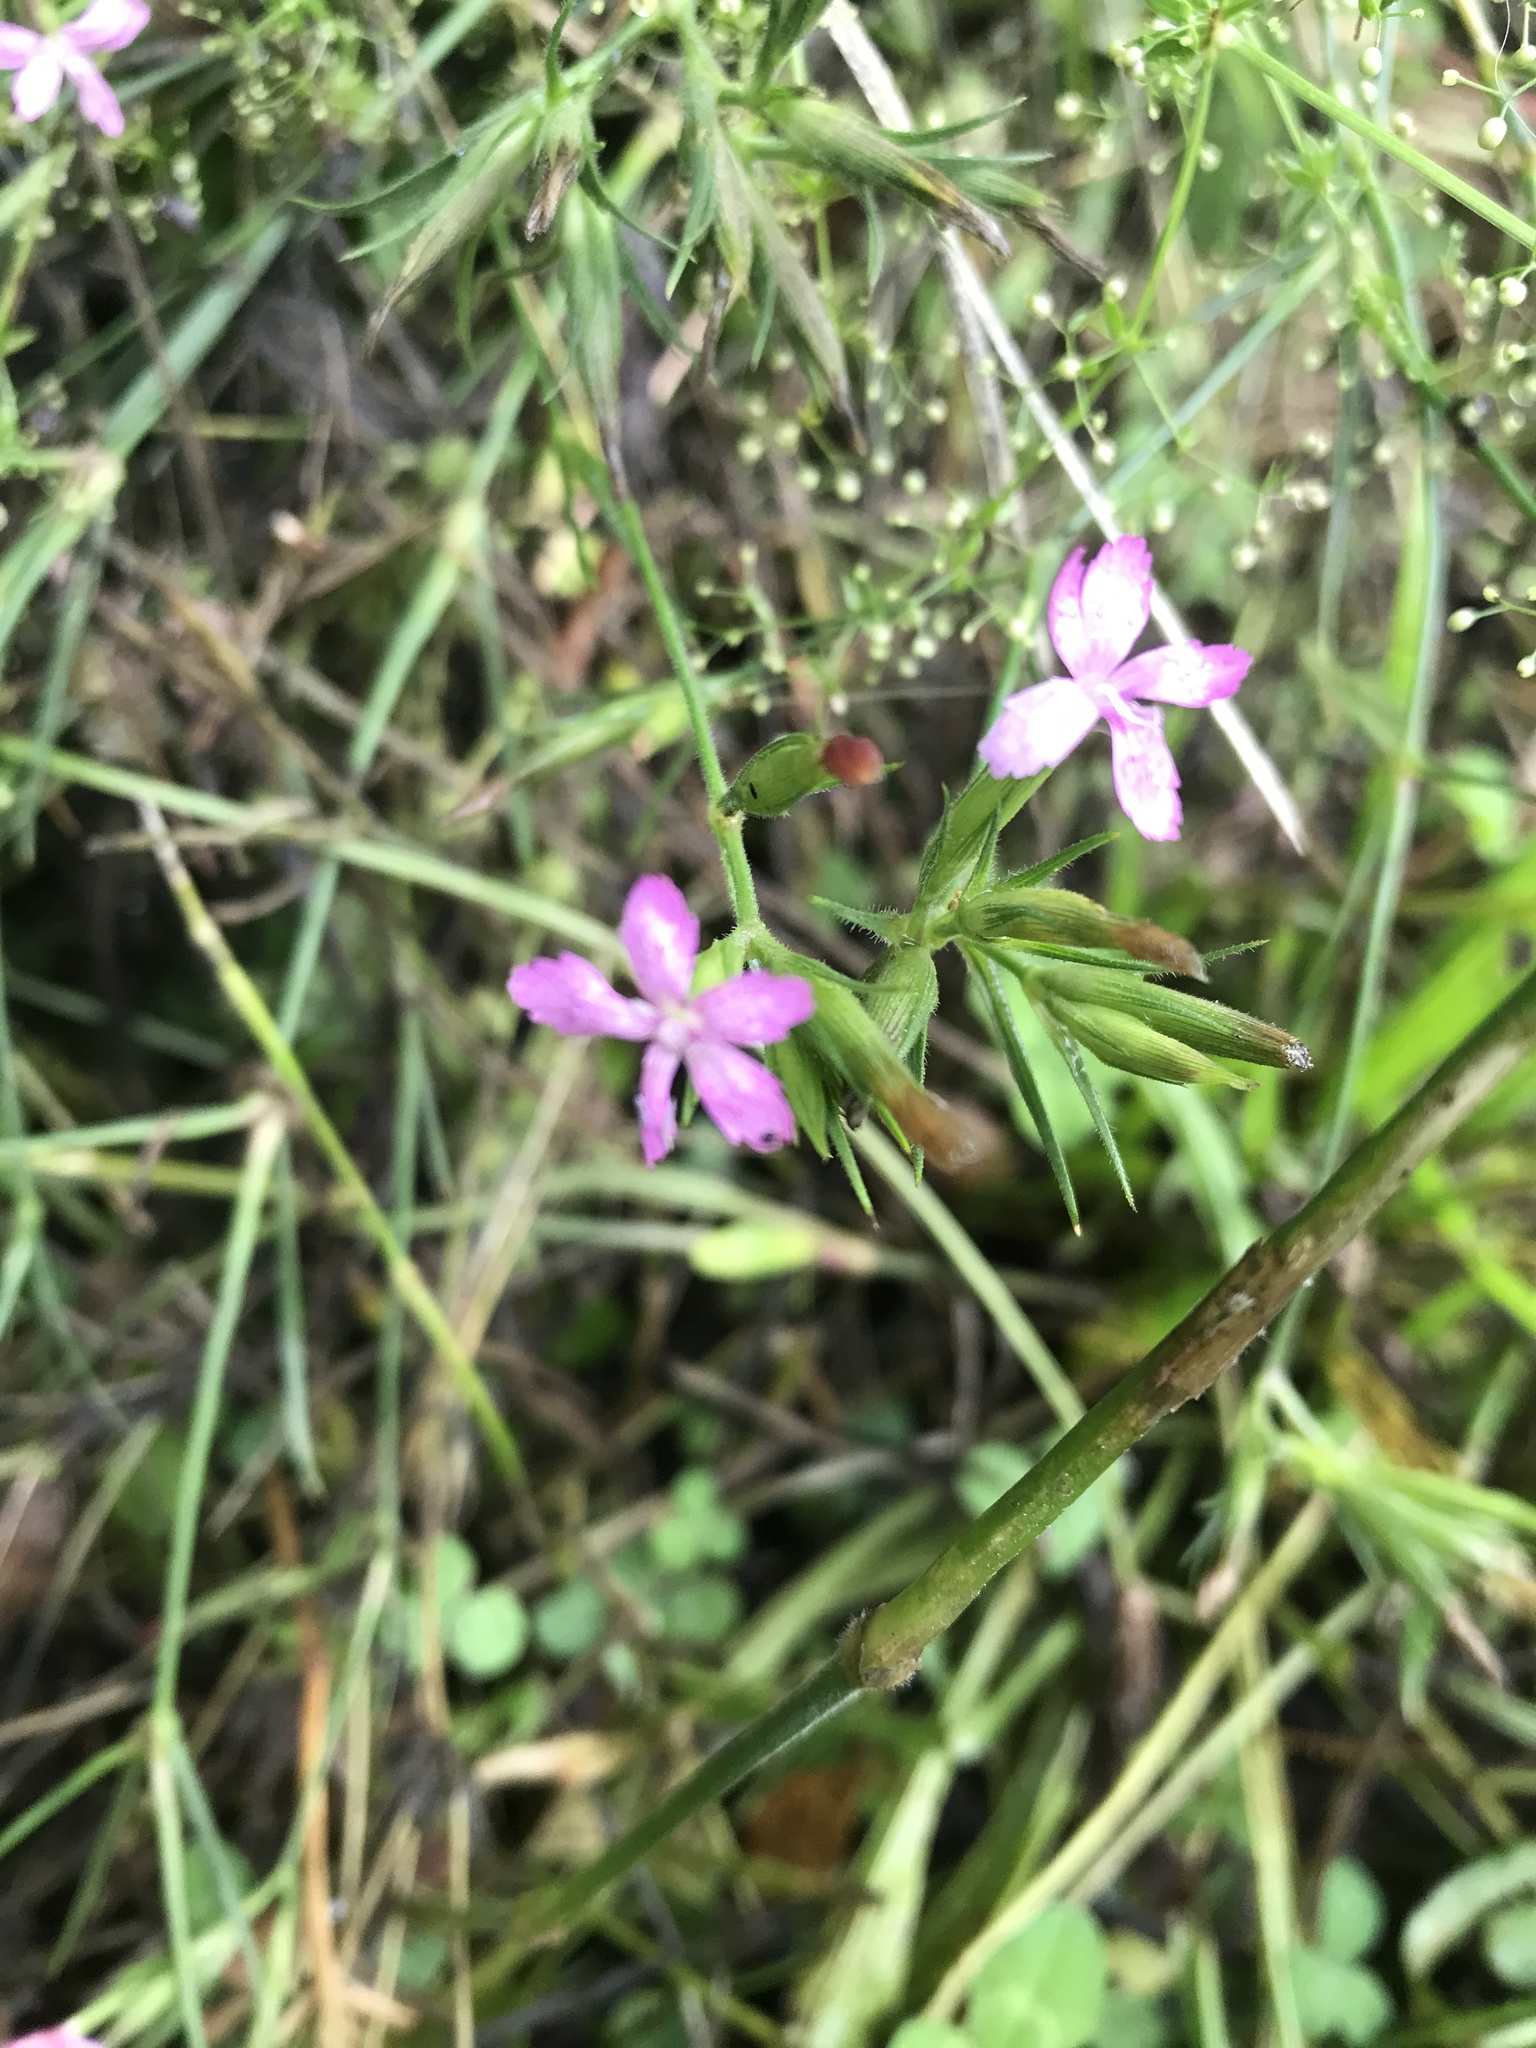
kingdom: Plantae
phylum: Tracheophyta
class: Magnoliopsida
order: Caryophyllales
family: Caryophyllaceae
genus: Dianthus
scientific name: Dianthus armeria
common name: Deptford pink
